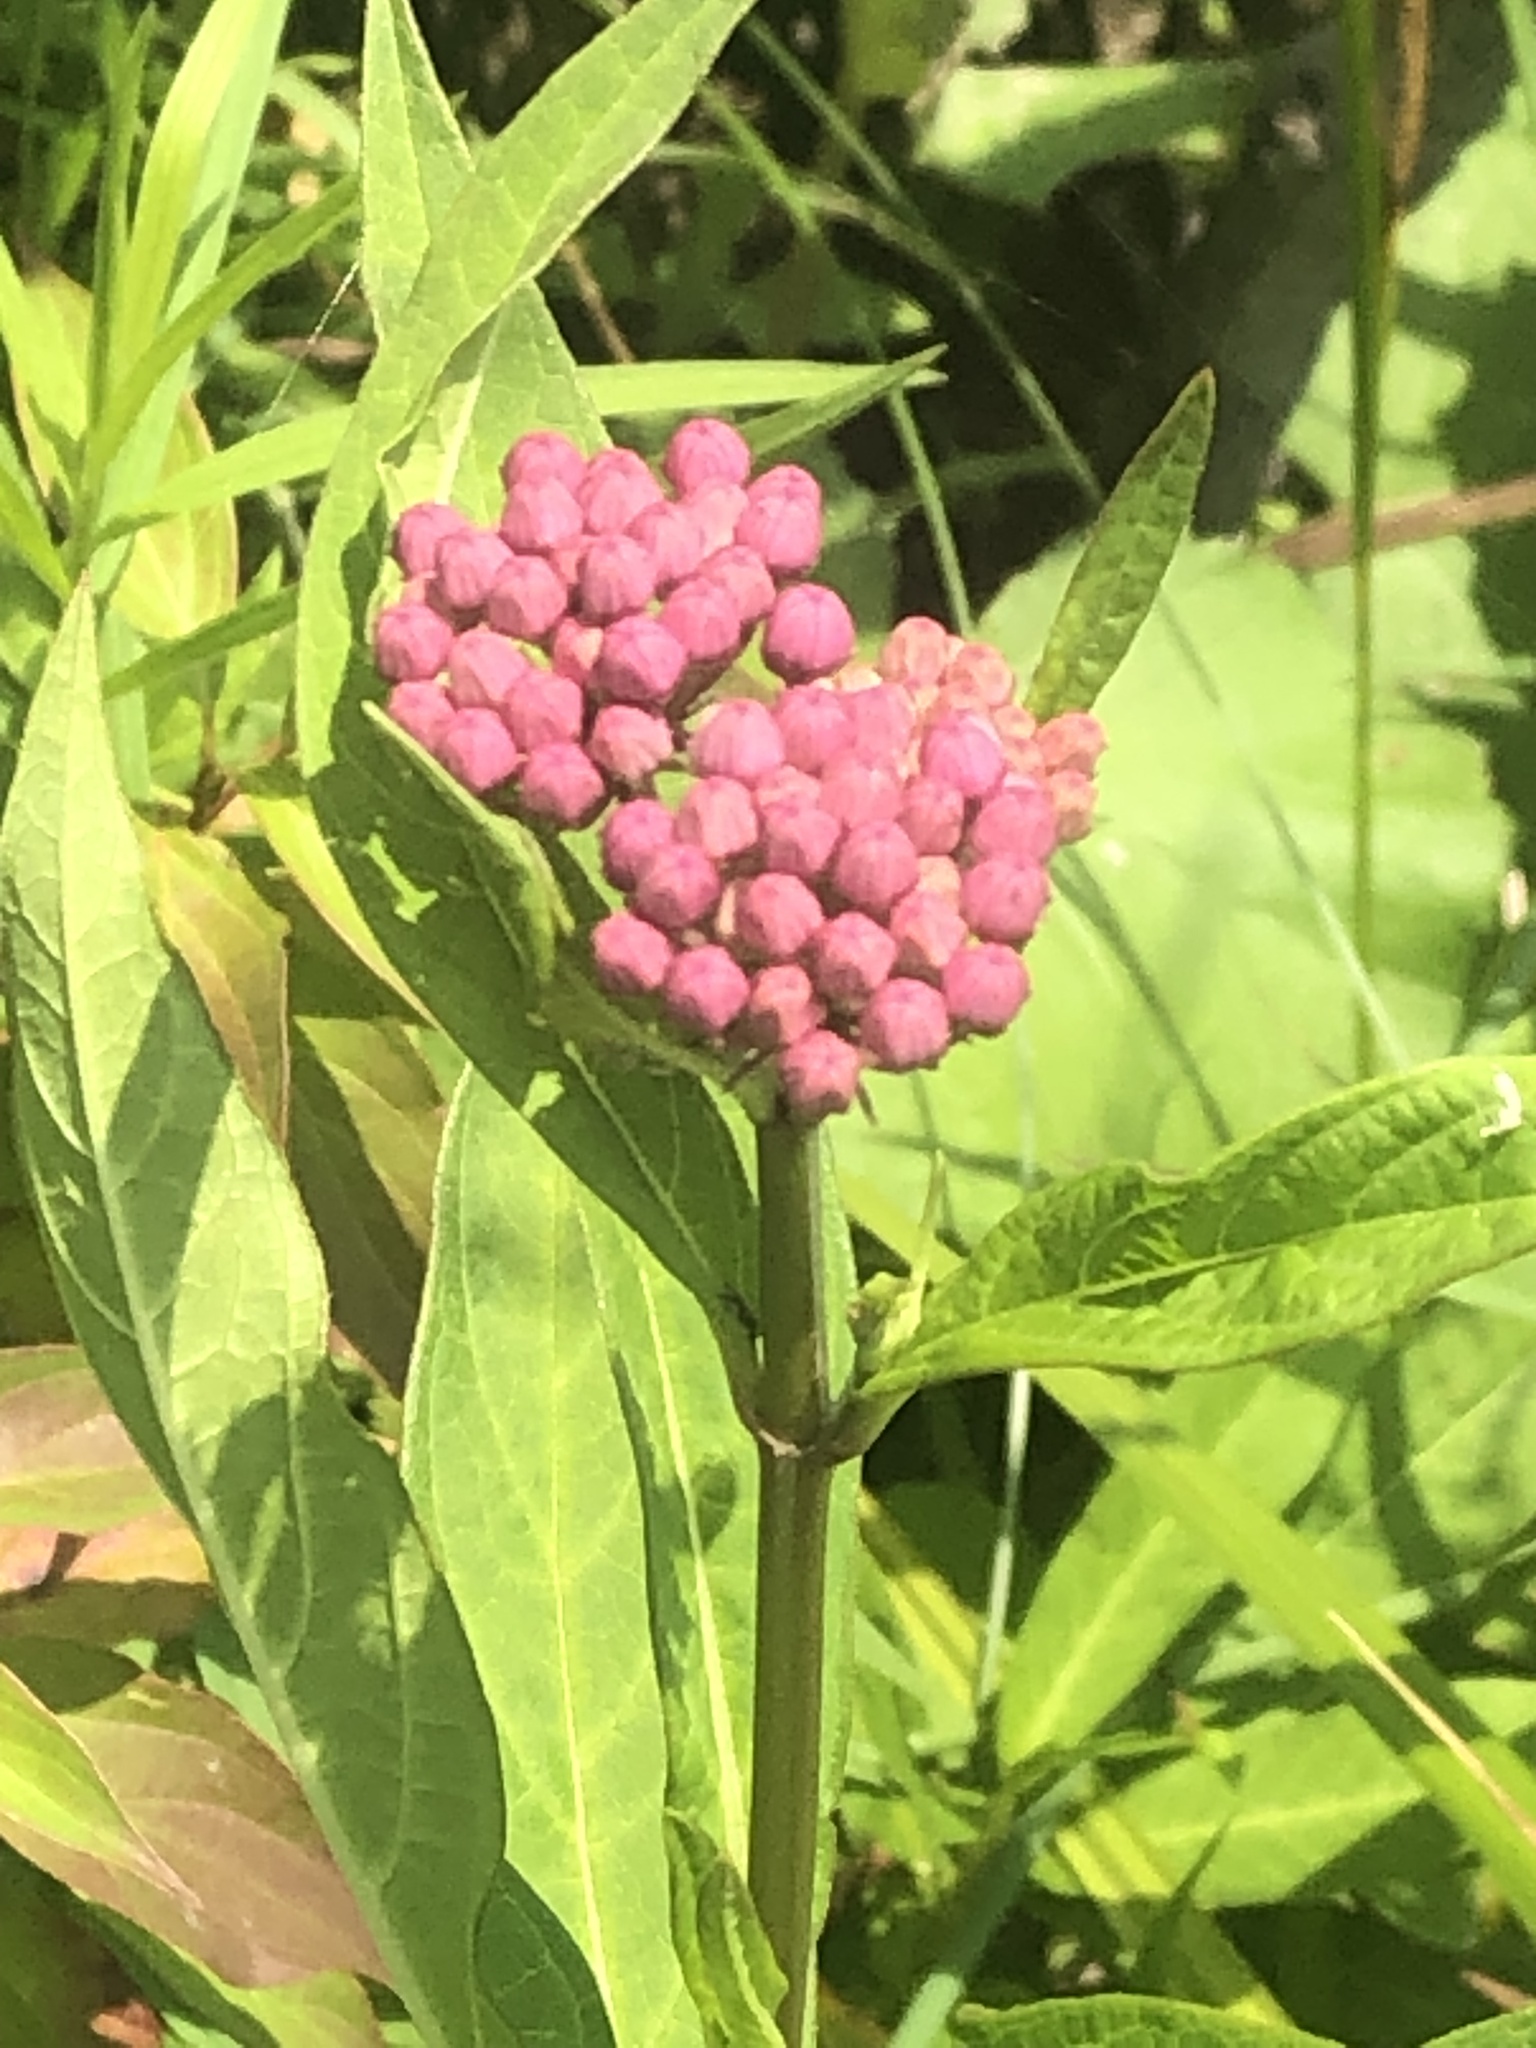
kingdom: Plantae
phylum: Tracheophyta
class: Magnoliopsida
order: Gentianales
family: Apocynaceae
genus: Asclepias
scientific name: Asclepias incarnata
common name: Swamp milkweed
